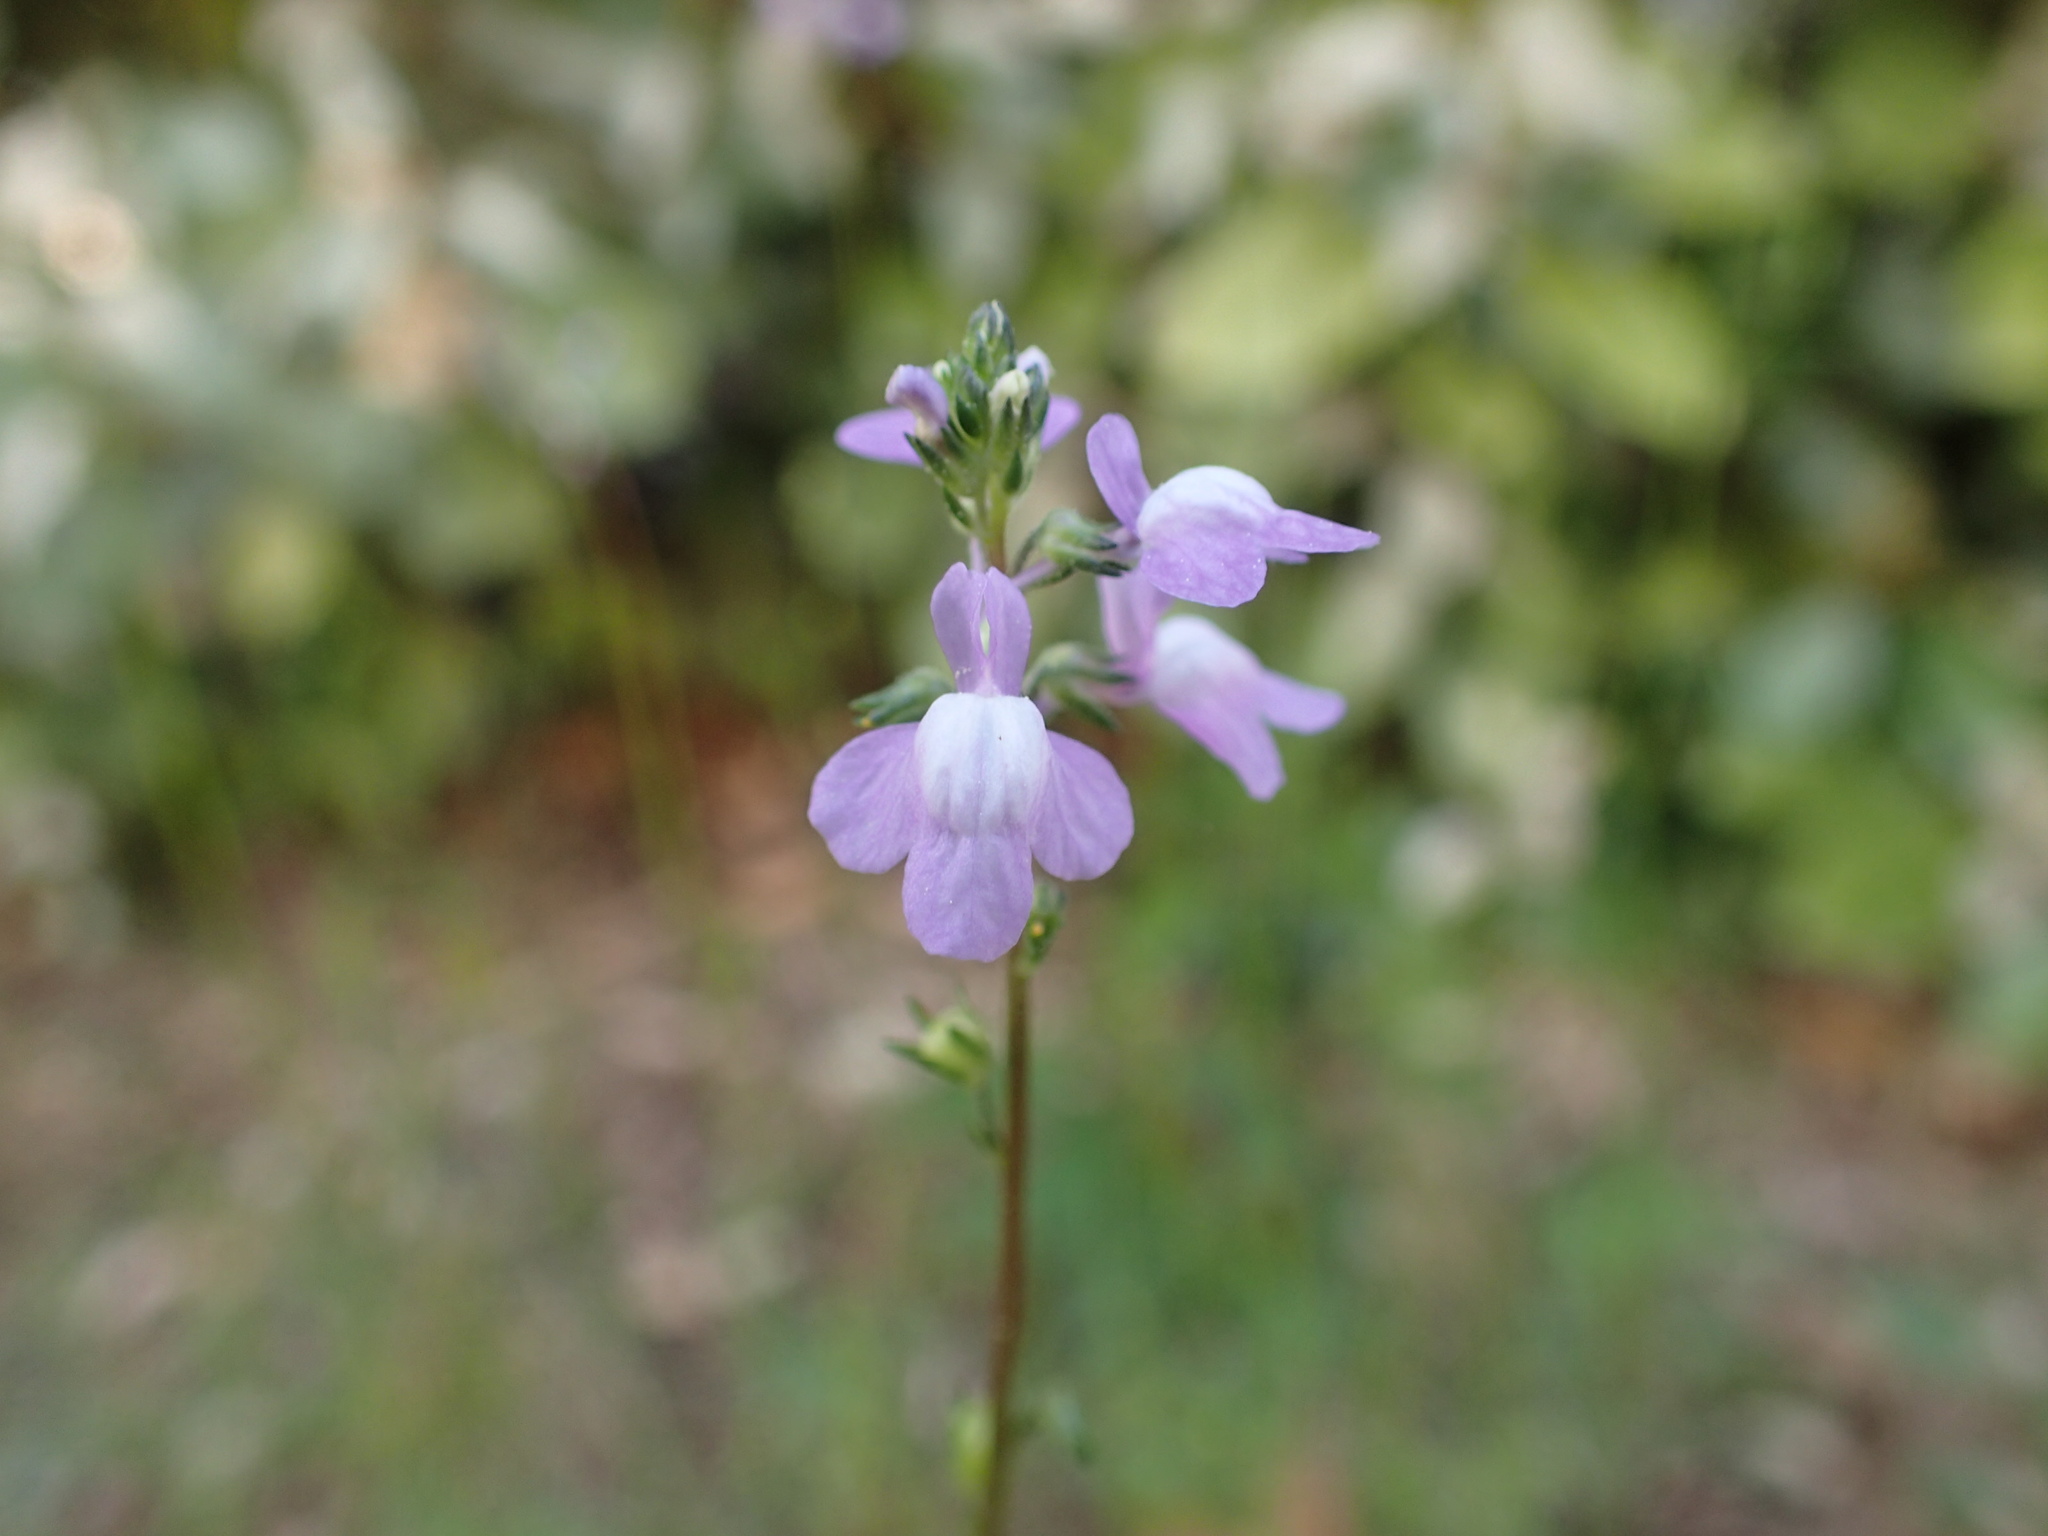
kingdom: Plantae
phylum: Tracheophyta
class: Magnoliopsida
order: Lamiales
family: Plantaginaceae
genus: Nuttallanthus
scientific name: Nuttallanthus canadensis
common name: Blue toadflax
